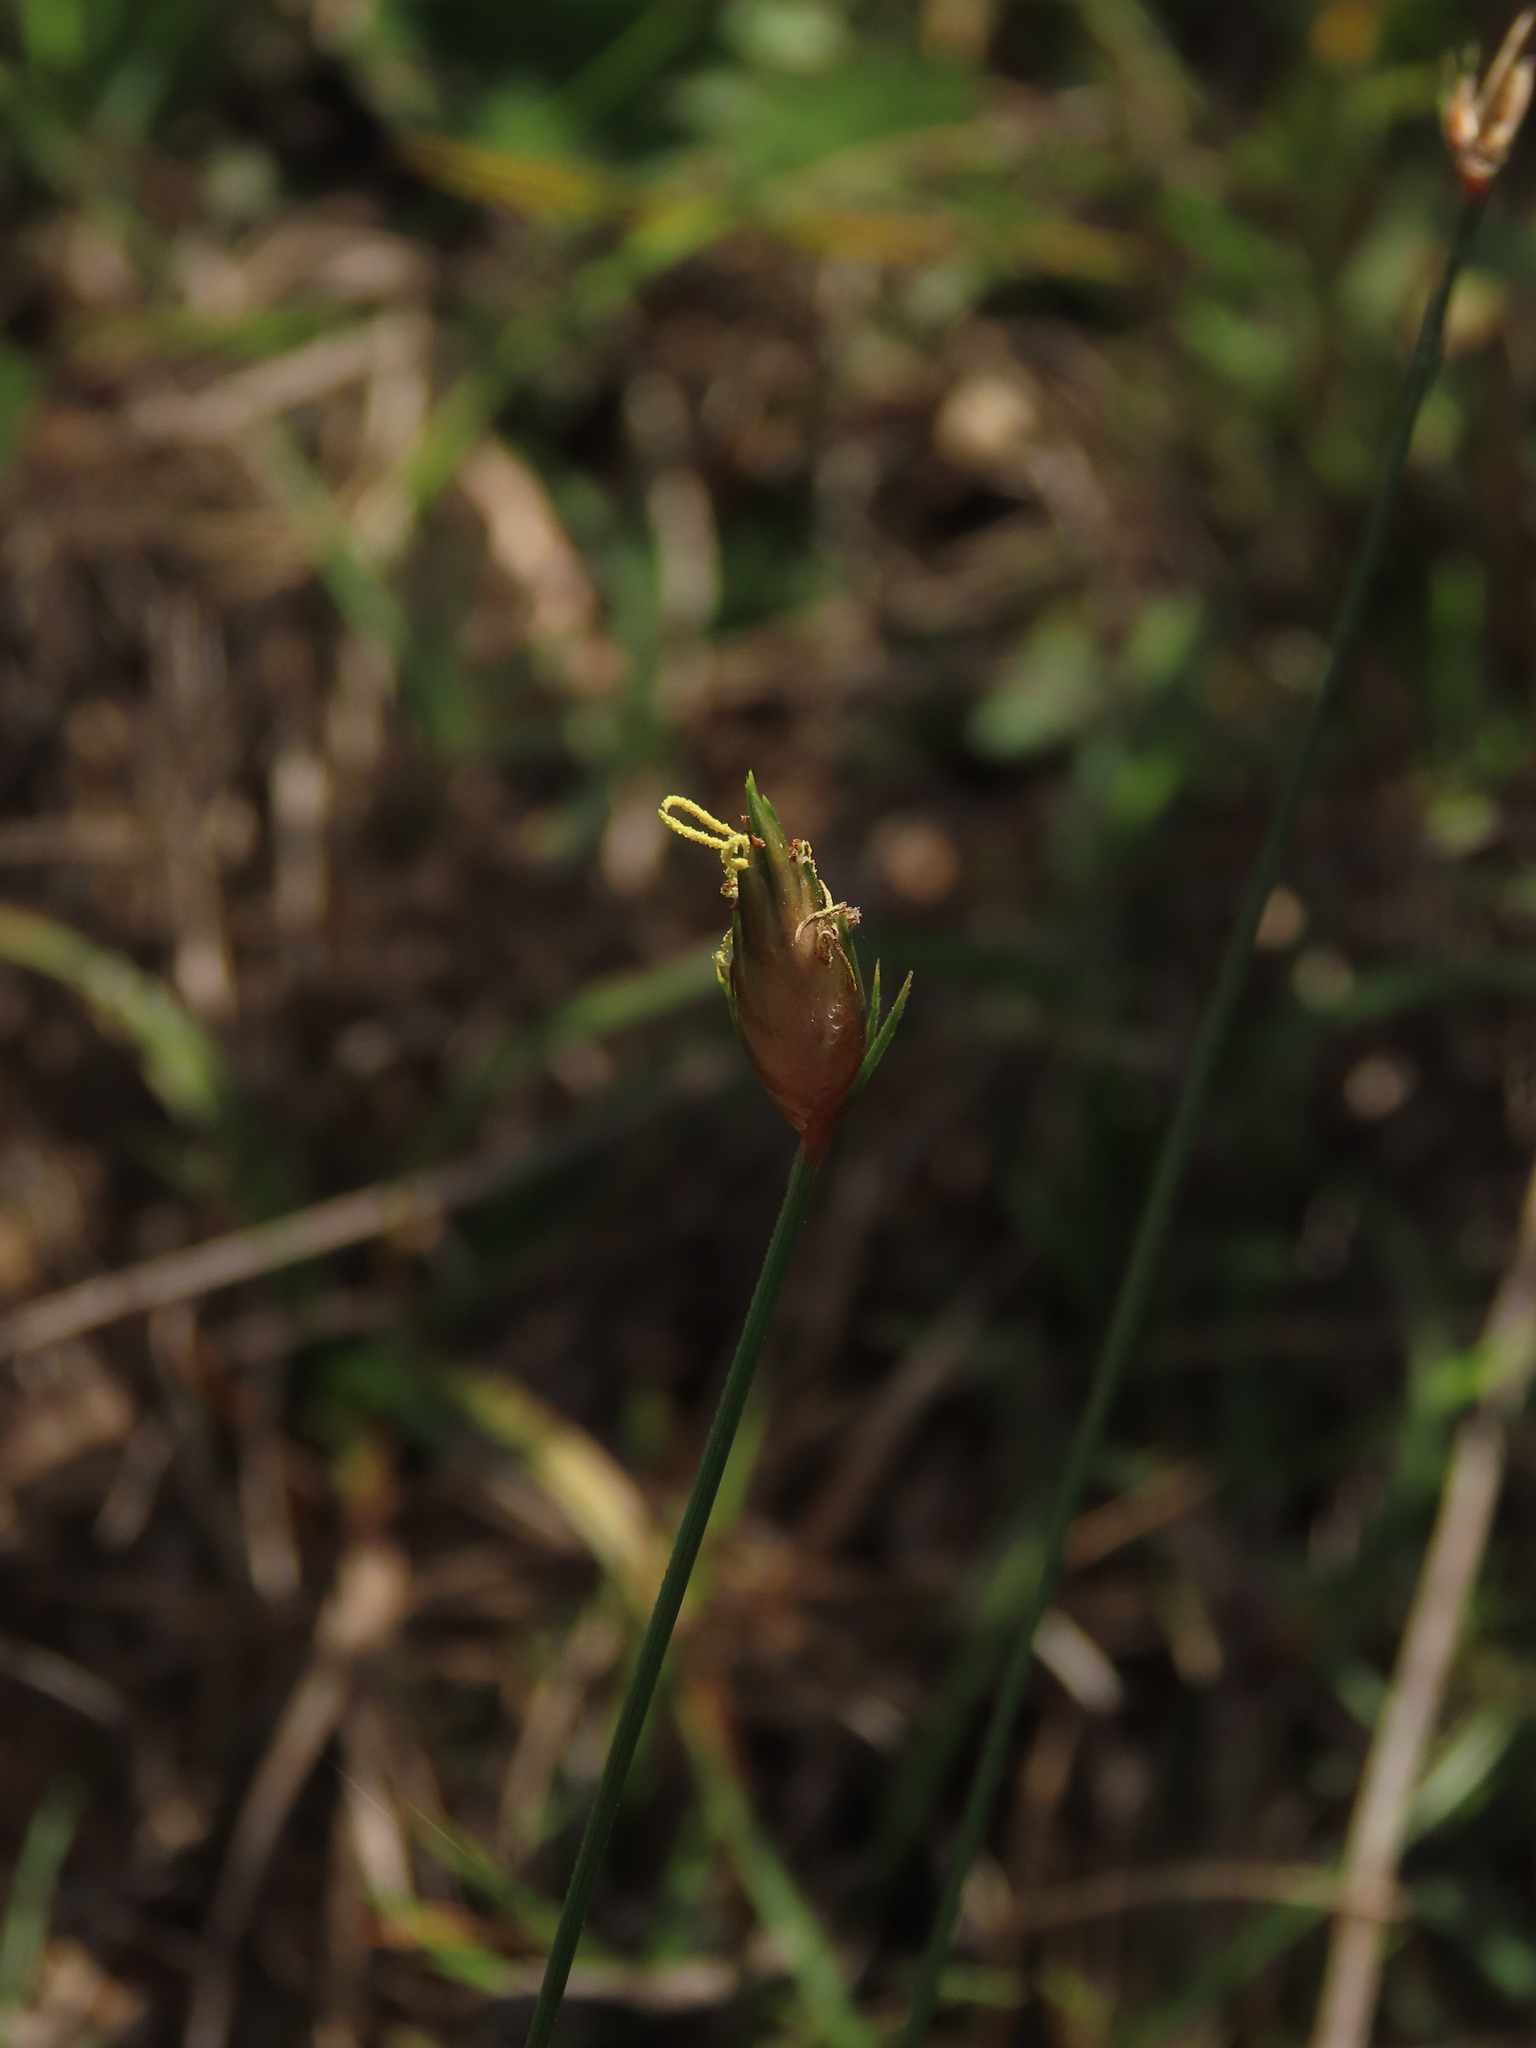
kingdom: Plantae
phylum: Tracheophyta
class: Liliopsida
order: Poales
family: Cyperaceae
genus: Abildgaardia
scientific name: Abildgaardia ovata
